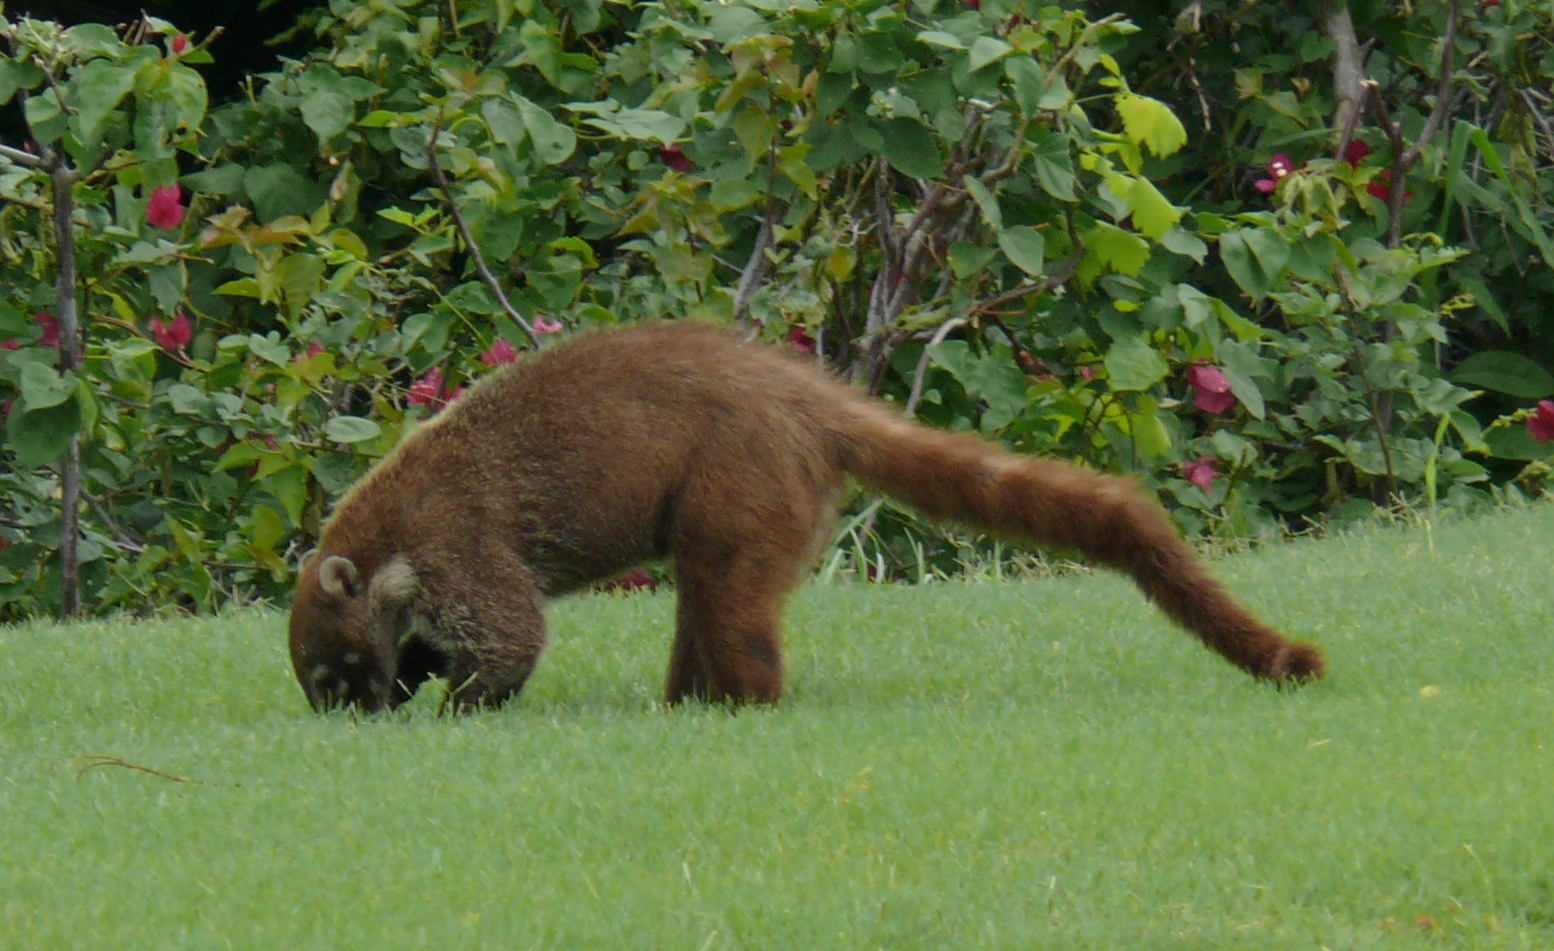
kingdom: Animalia
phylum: Chordata
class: Mammalia
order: Carnivora
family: Procyonidae
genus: Nasua
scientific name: Nasua narica
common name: White-nosed coati
